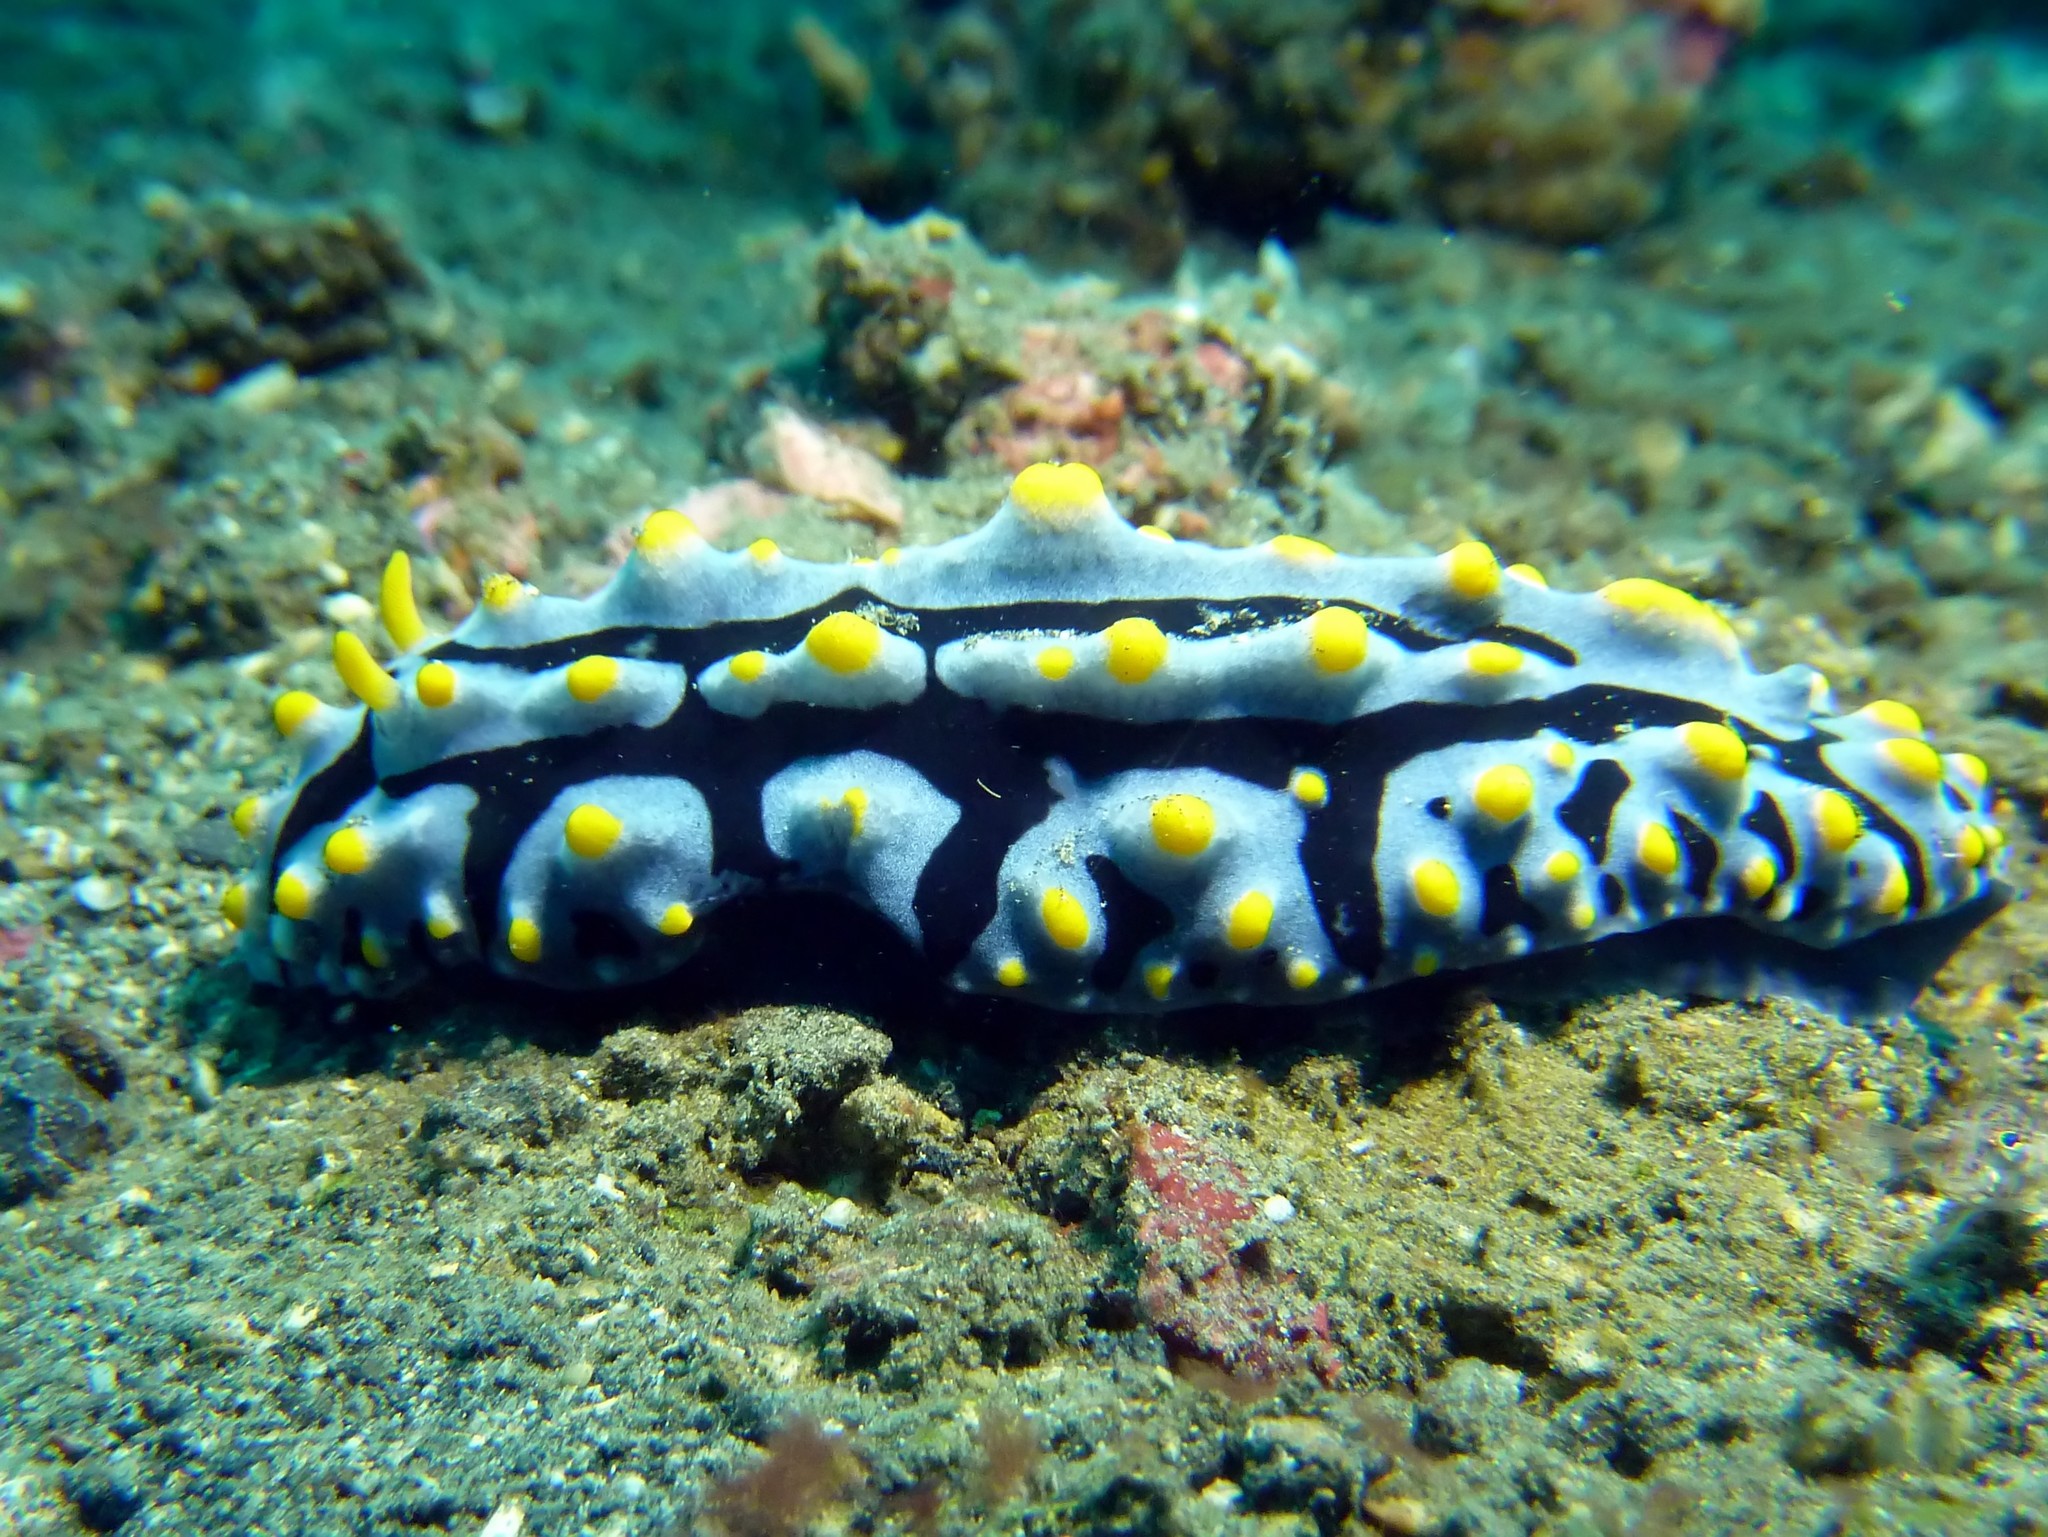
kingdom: Animalia
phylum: Mollusca
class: Gastropoda
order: Nudibranchia
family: Phyllidiidae
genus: Phyllidia
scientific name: Phyllidia varicosa
